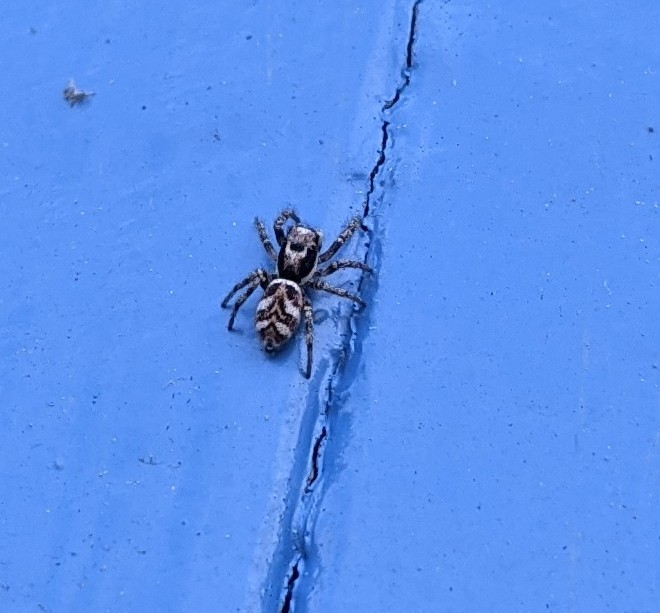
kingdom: Animalia
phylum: Arthropoda
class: Arachnida
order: Araneae
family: Salticidae
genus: Salticus
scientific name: Salticus scenicus
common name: Zebra jumper
